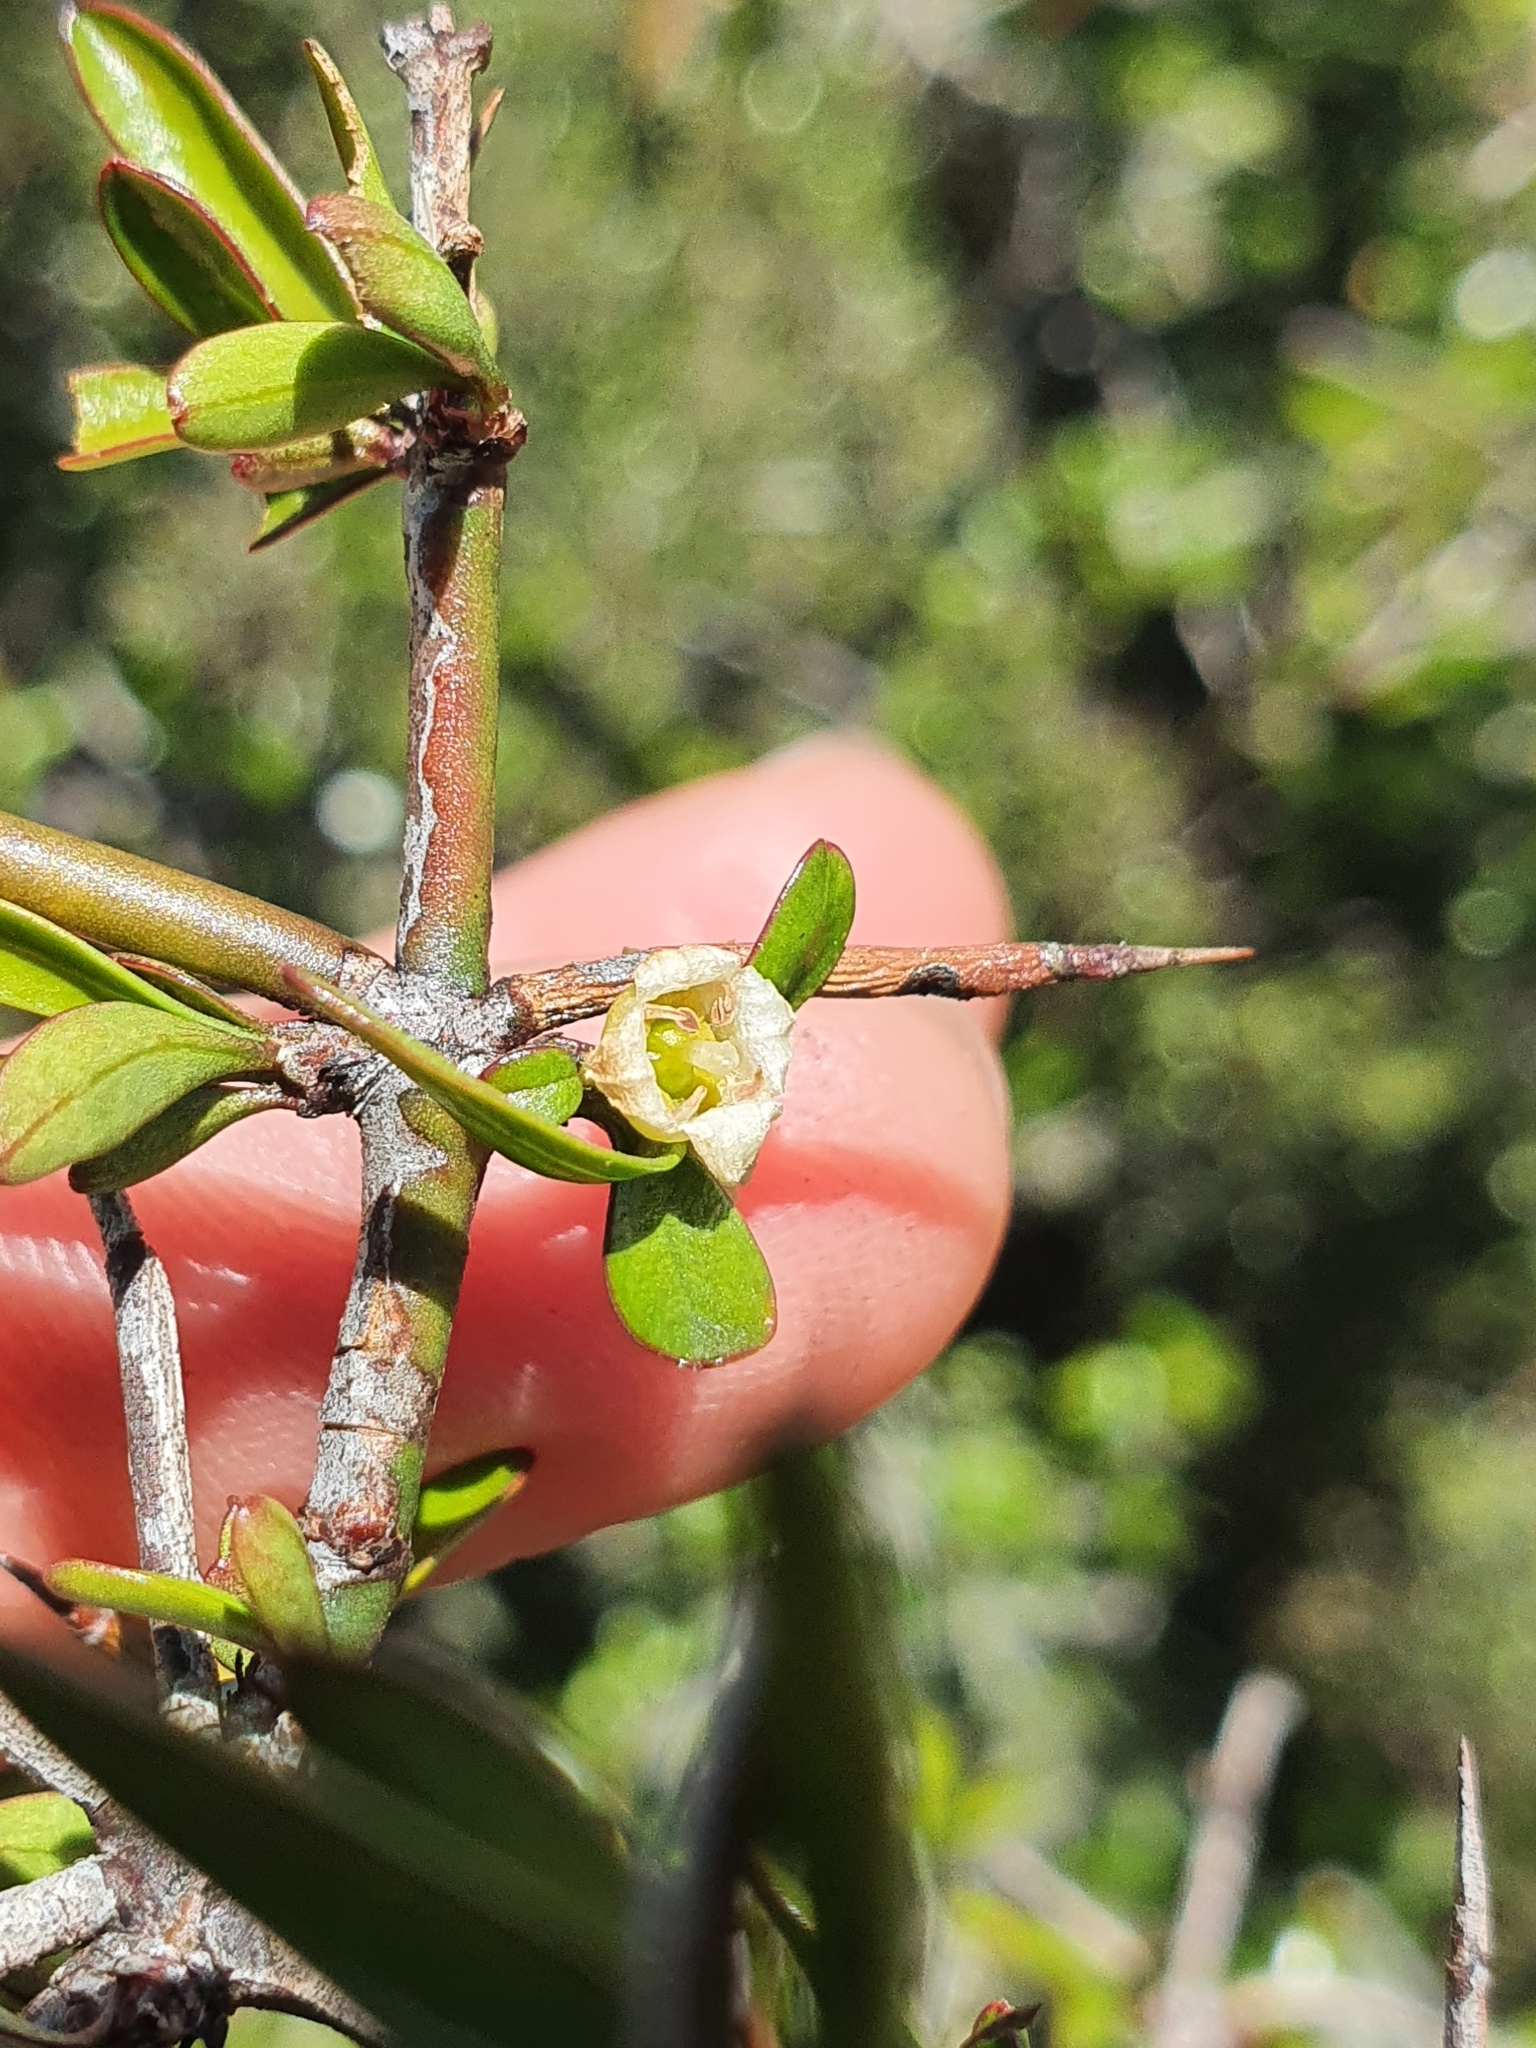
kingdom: Plantae
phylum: Tracheophyta
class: Magnoliopsida
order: Rosales
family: Rhamnaceae
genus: Discaria
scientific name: Discaria toumatou
